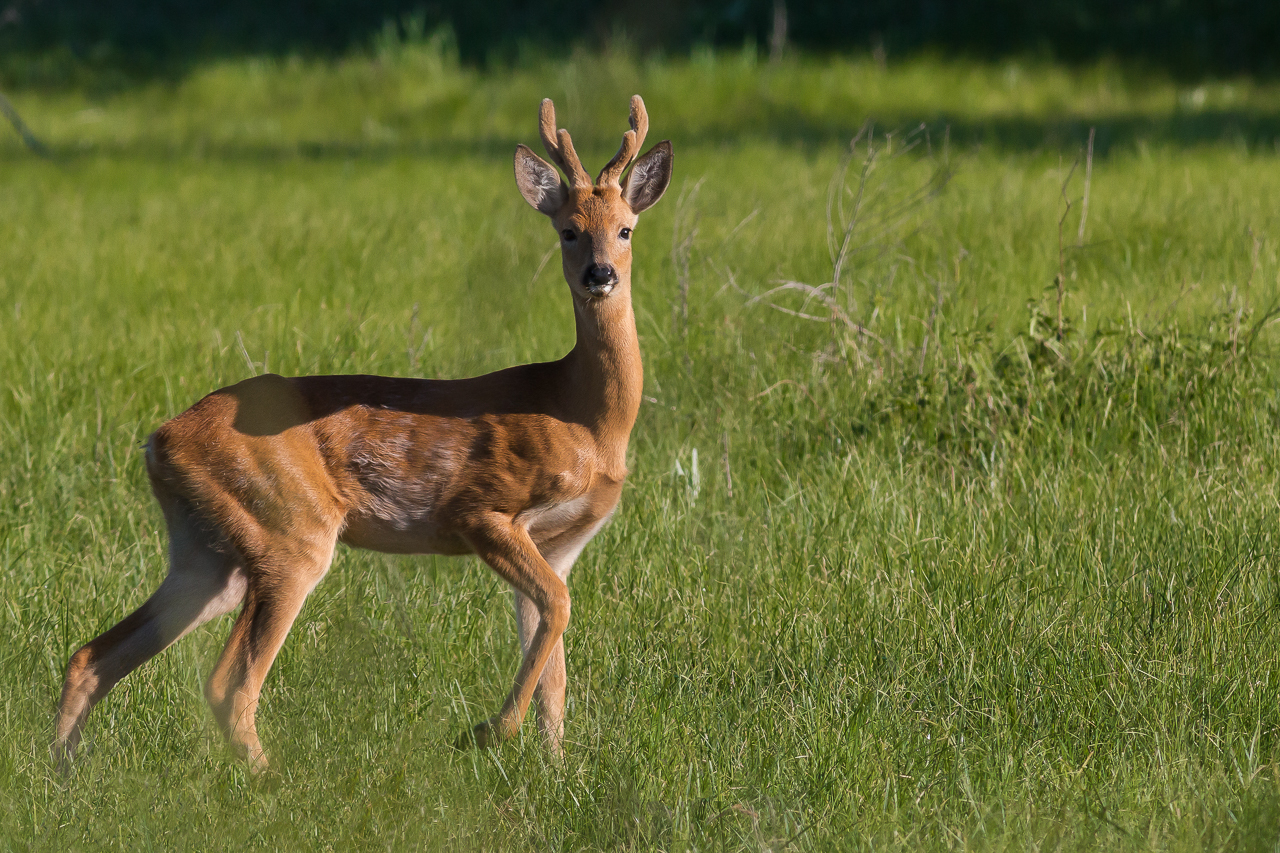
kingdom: Animalia
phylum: Chordata
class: Mammalia
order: Artiodactyla
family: Cervidae
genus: Capreolus
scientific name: Capreolus pygargus
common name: Siberian roe
